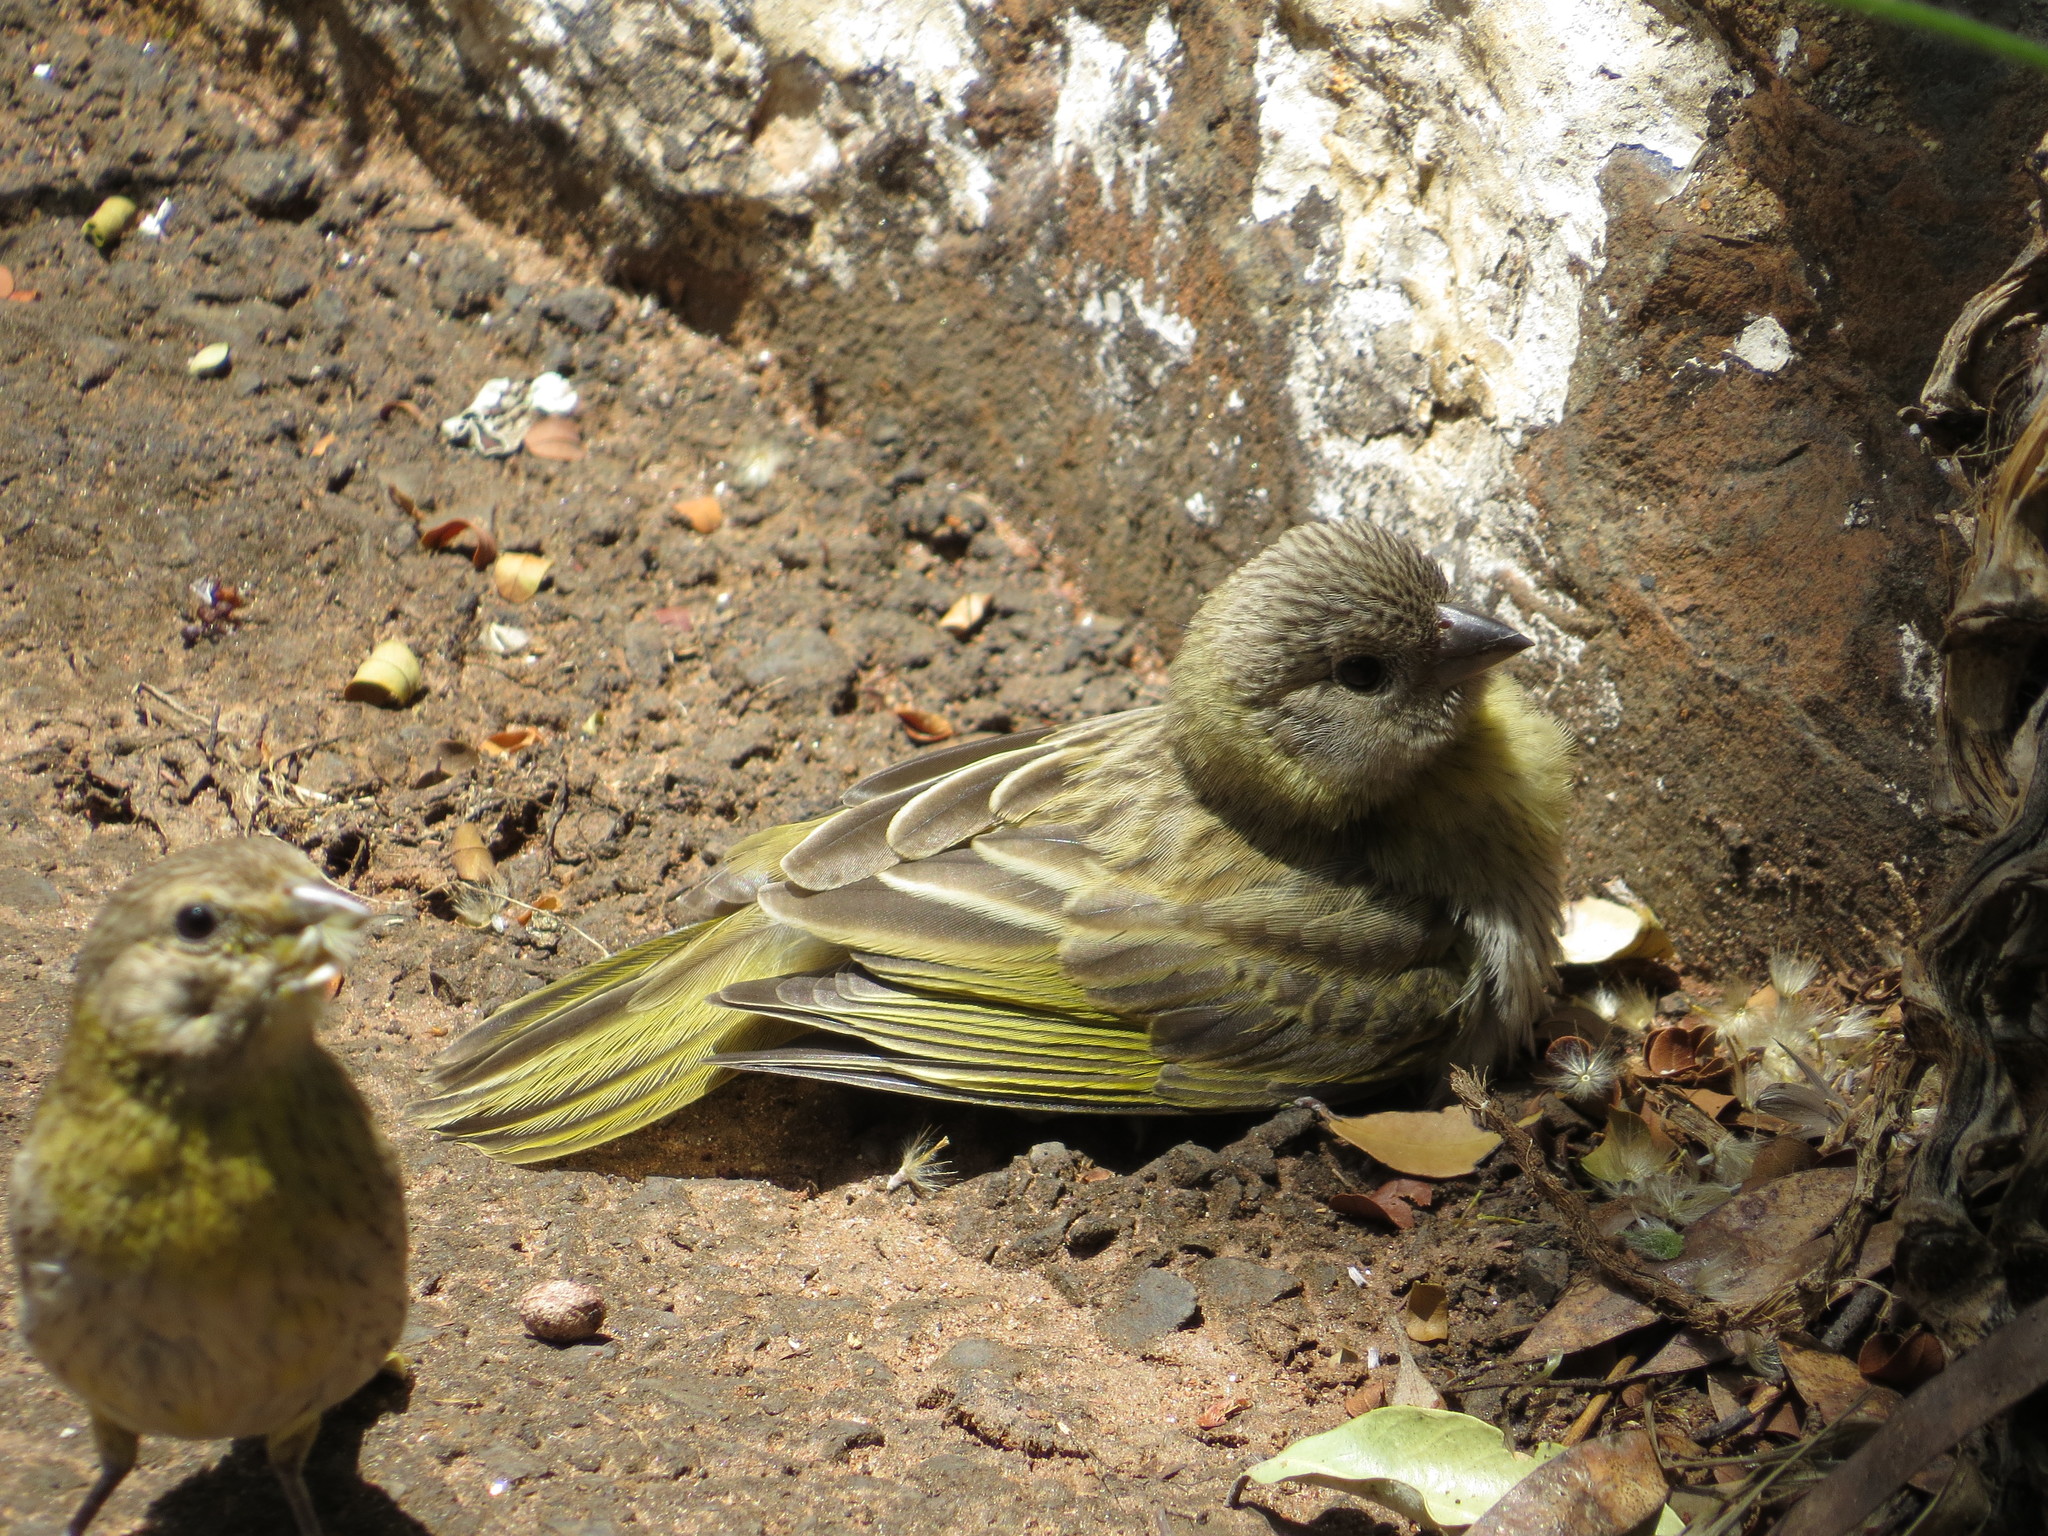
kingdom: Animalia
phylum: Chordata
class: Aves
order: Passeriformes
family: Thraupidae
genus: Sicalis
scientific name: Sicalis flaveola
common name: Saffron finch
